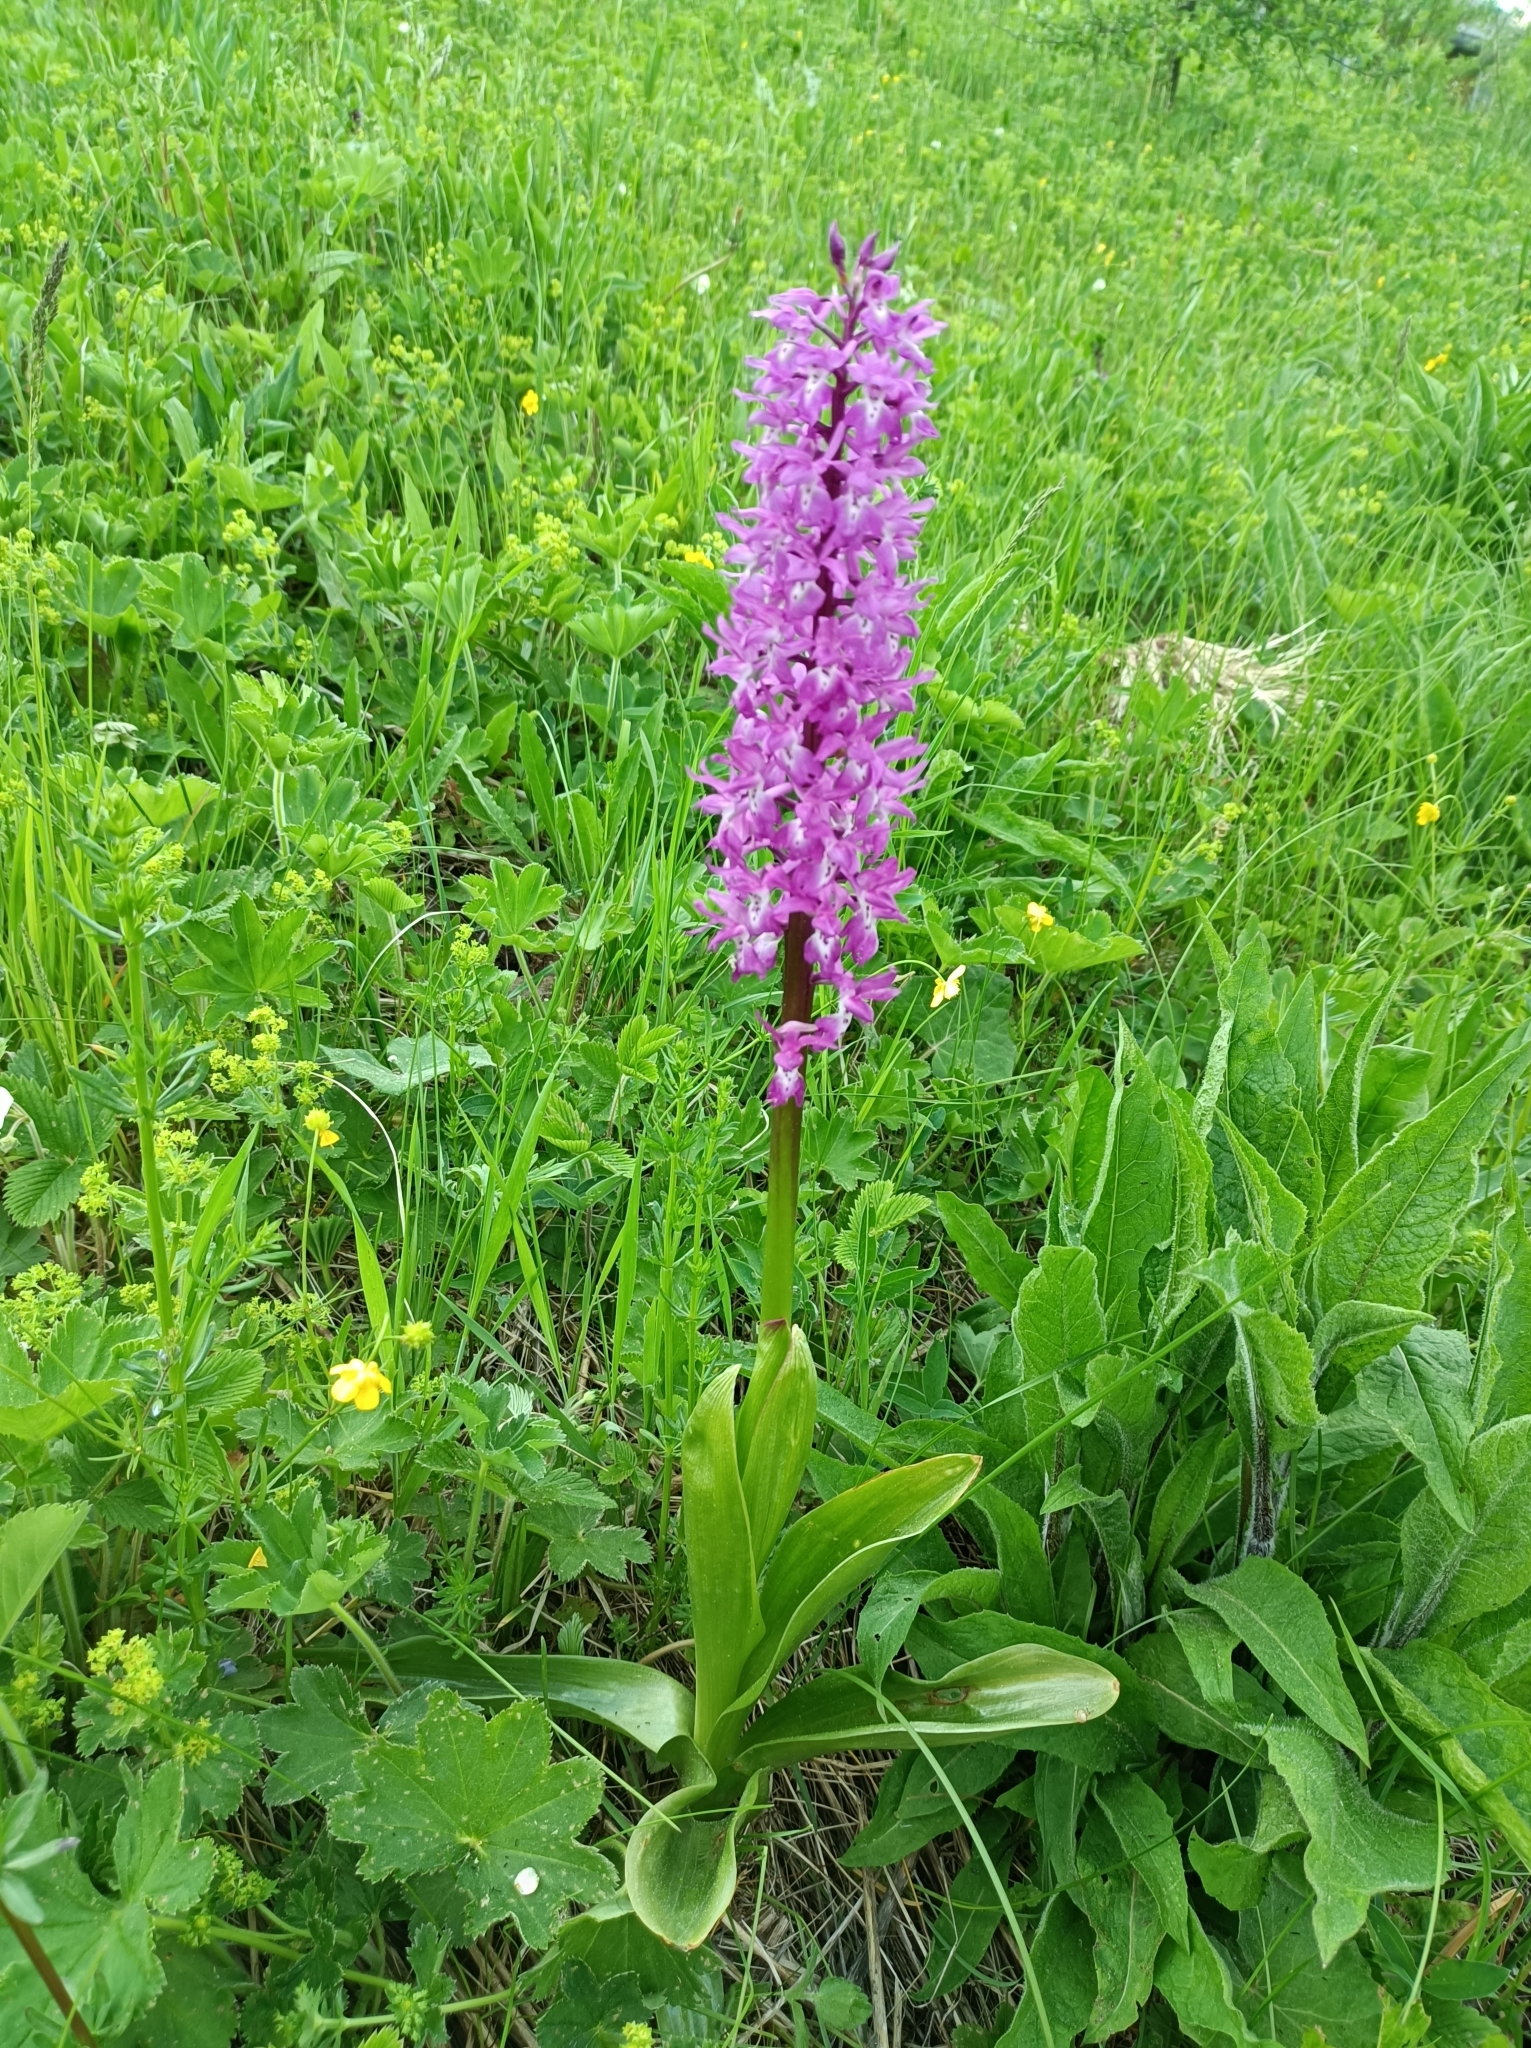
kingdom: Plantae
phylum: Tracheophyta
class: Liliopsida
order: Asparagales
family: Orchidaceae
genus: Orchis
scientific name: Orchis mascula
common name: Early-purple orchid
